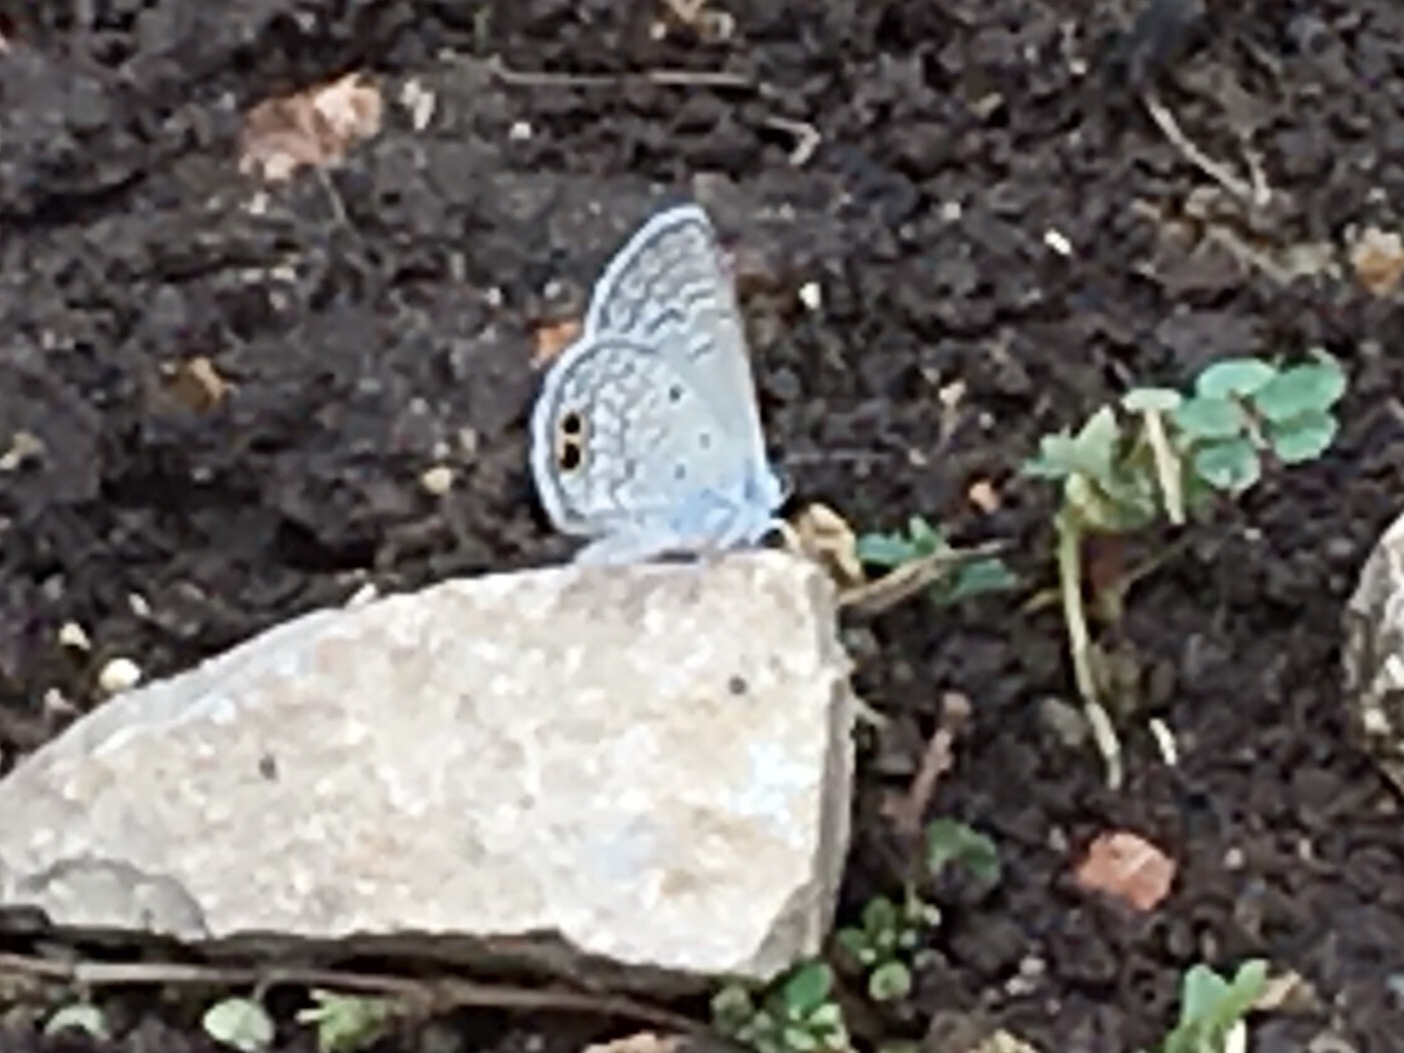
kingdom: Animalia
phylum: Arthropoda
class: Insecta
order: Lepidoptera
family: Lycaenidae
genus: Hemiargus
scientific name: Hemiargus ceraunus
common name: Ceraunus blue
